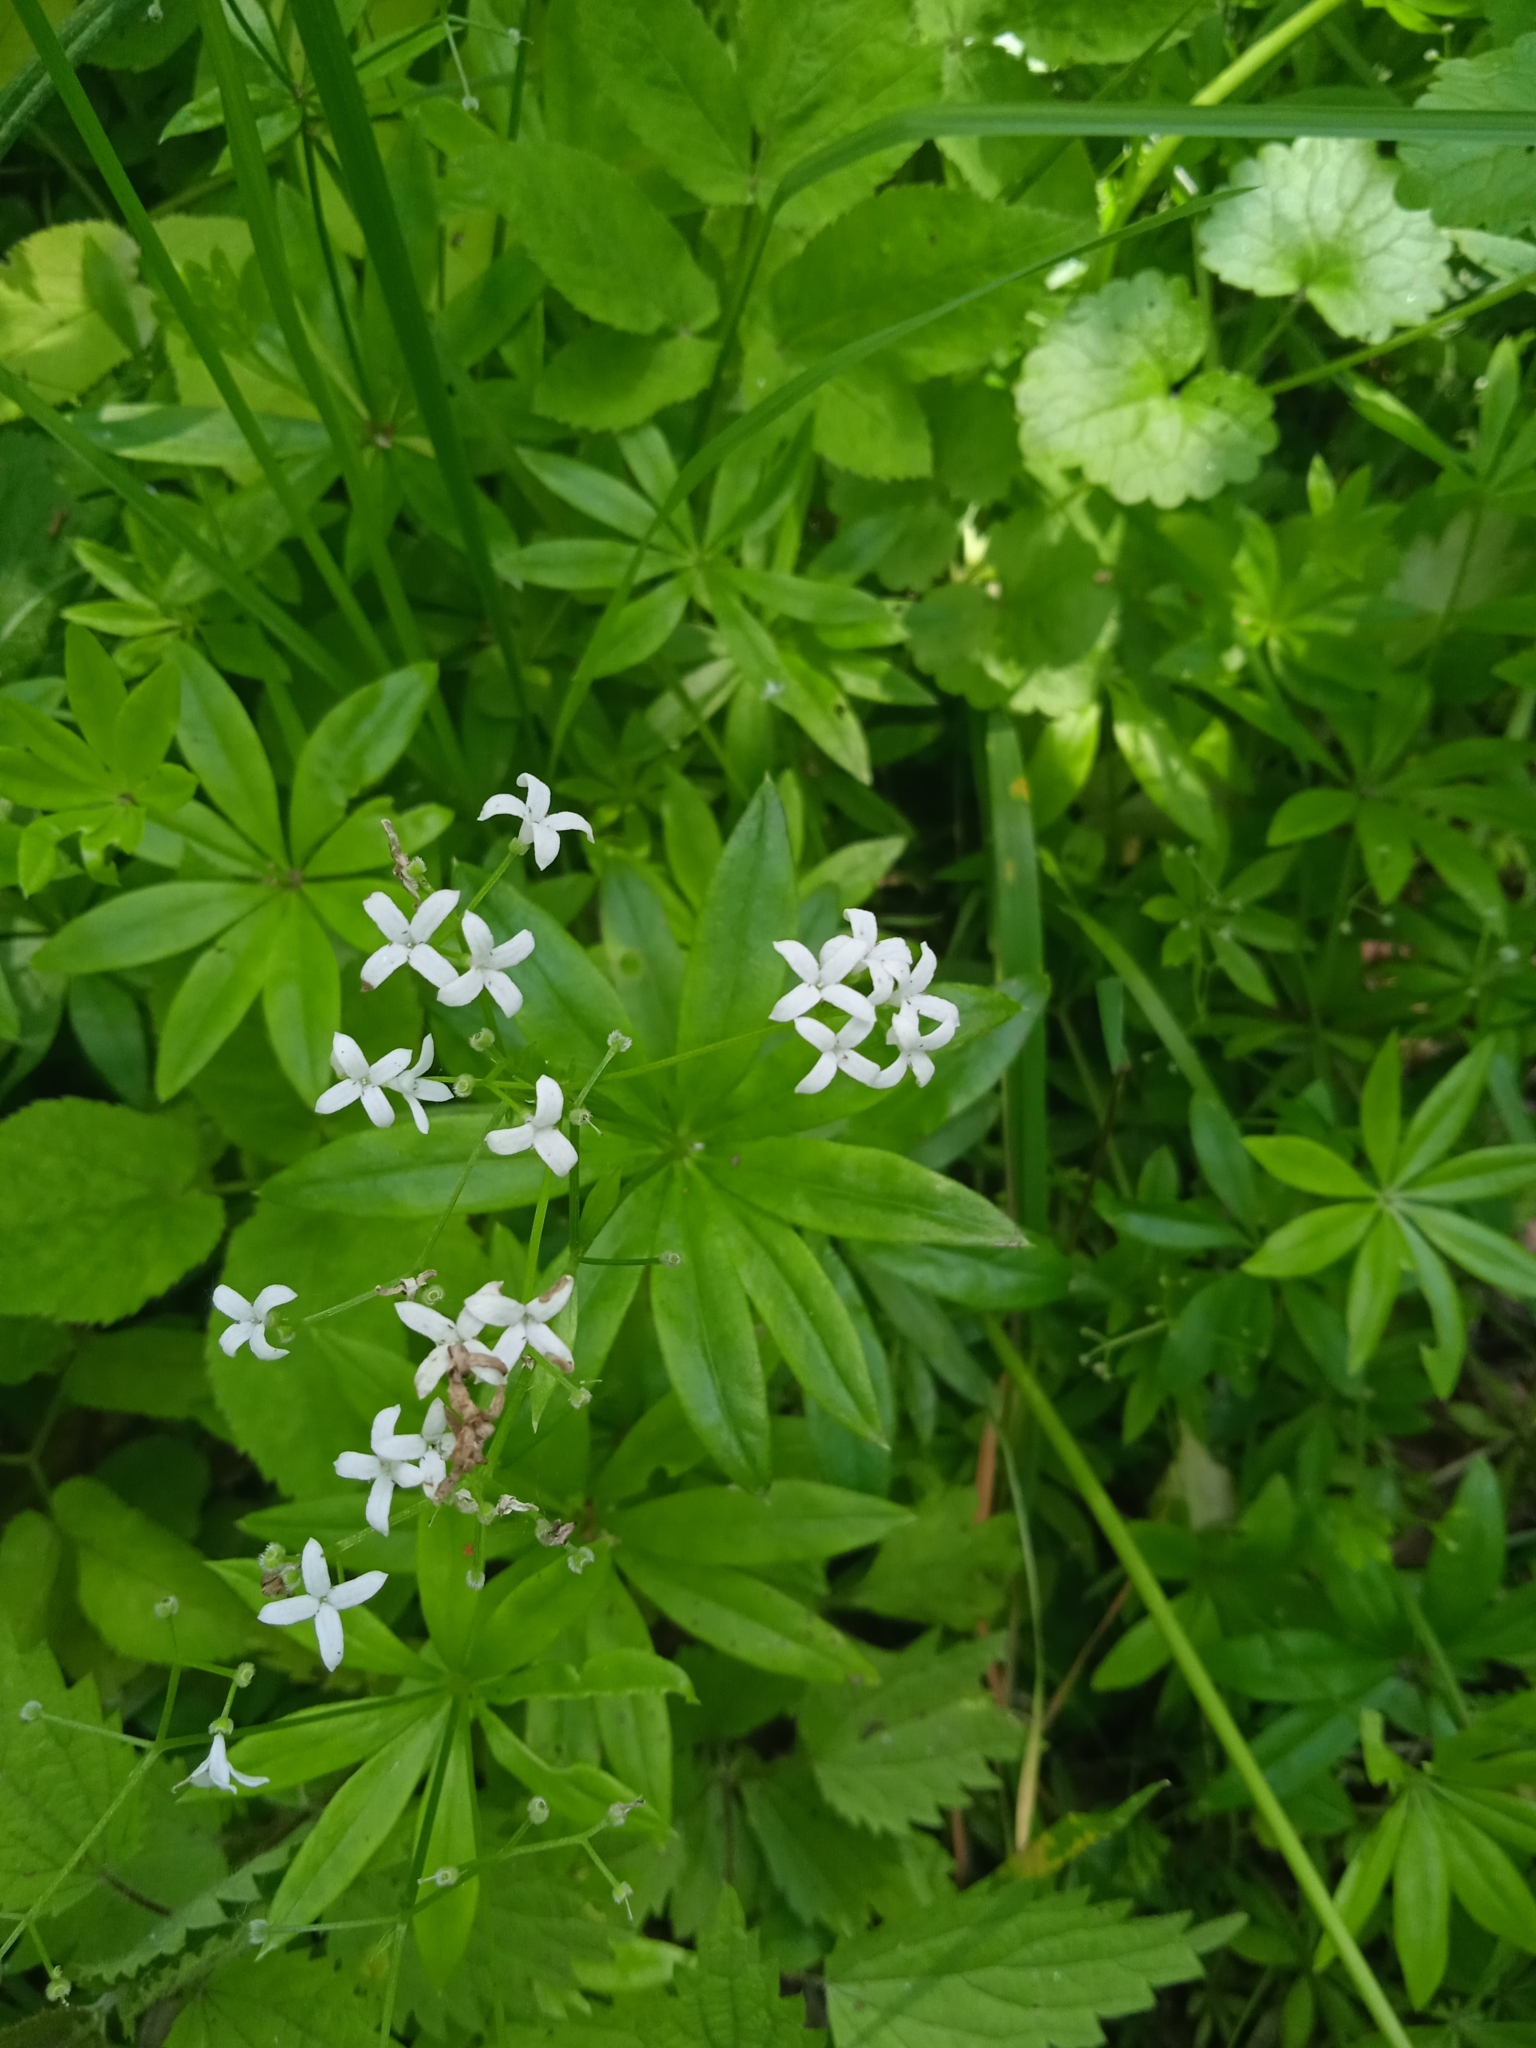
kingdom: Plantae
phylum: Tracheophyta
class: Magnoliopsida
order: Gentianales
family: Rubiaceae
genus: Galium
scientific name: Galium odoratum
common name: Sweet woodruff
